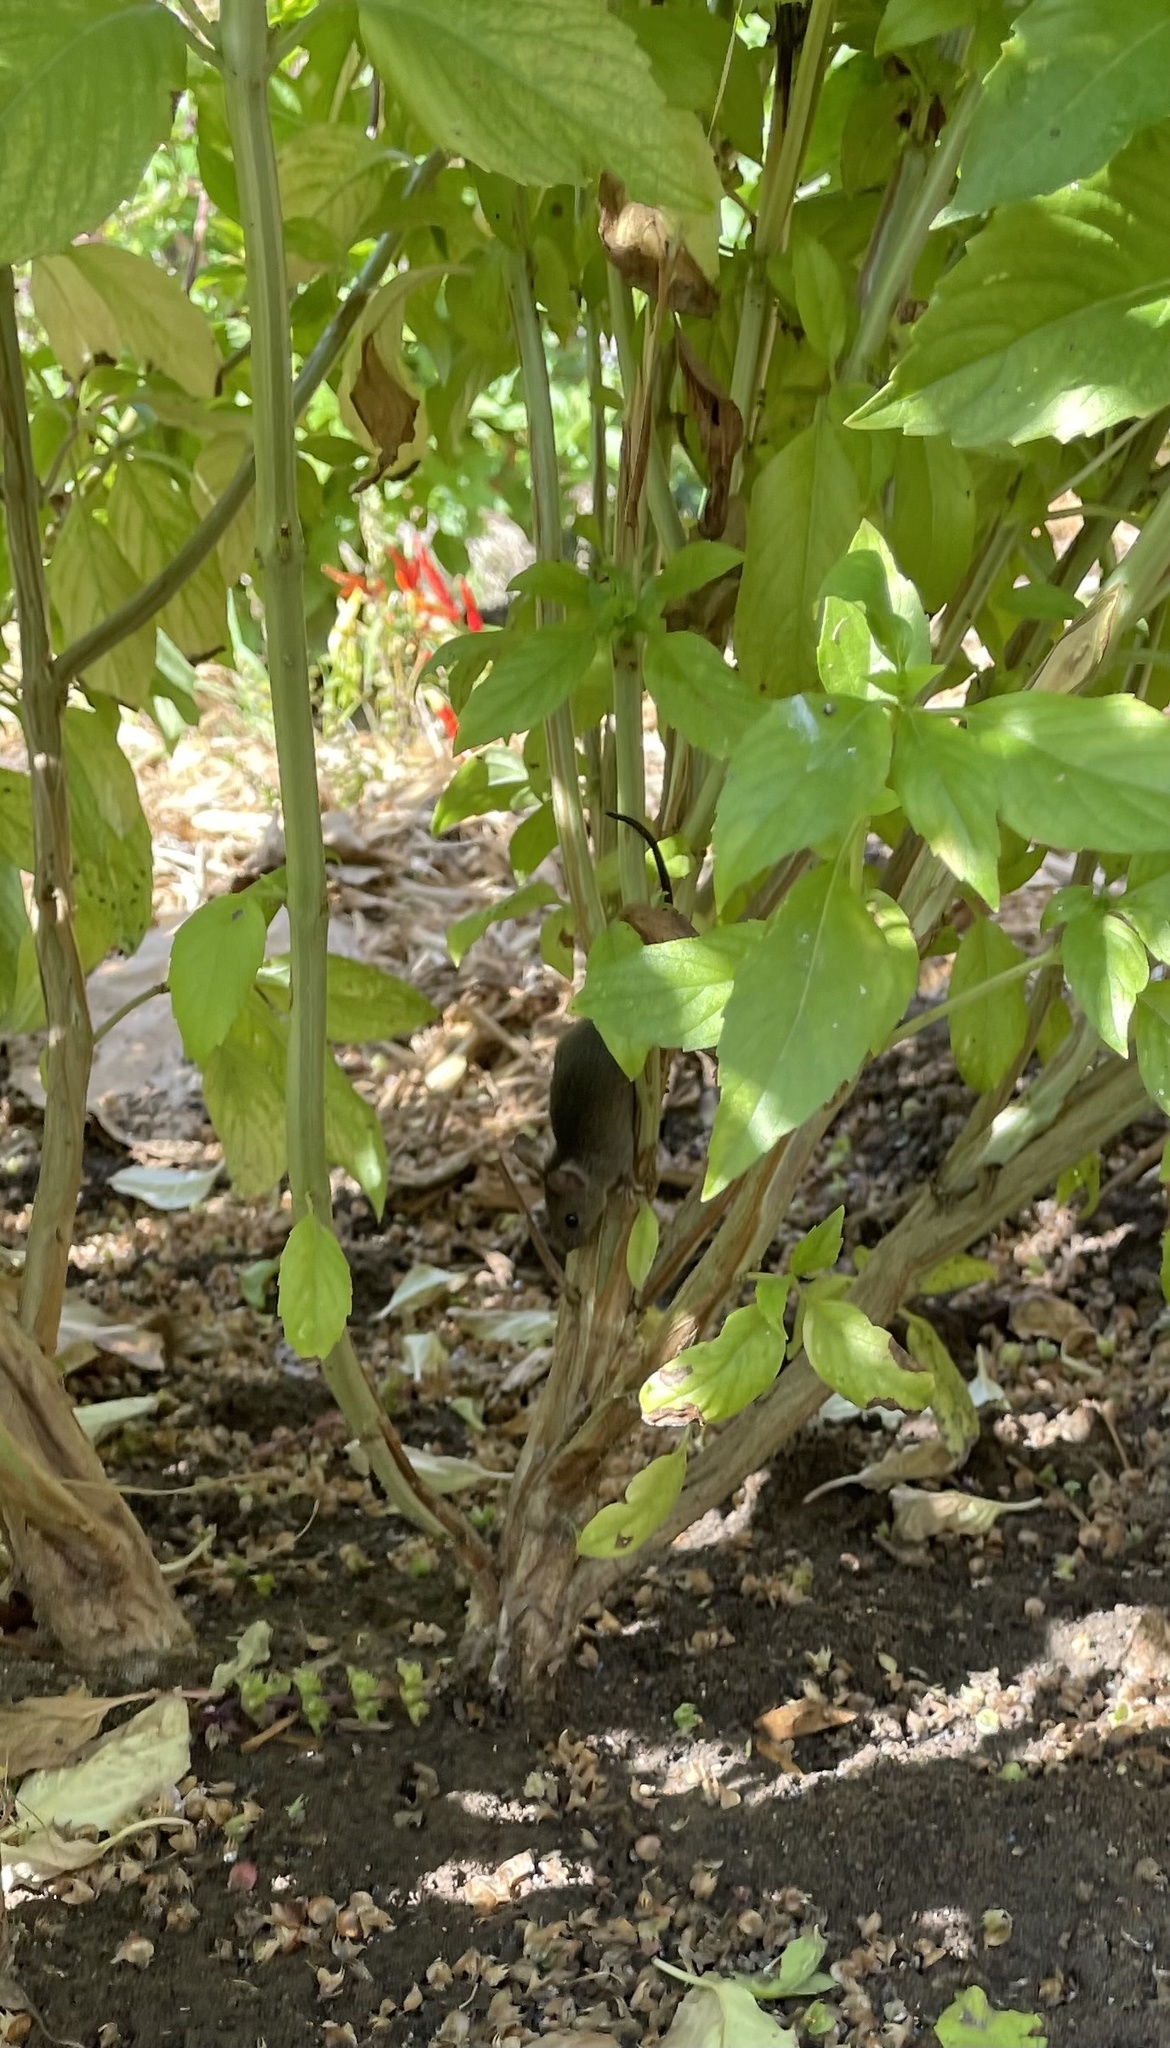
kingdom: Animalia
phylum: Chordata
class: Mammalia
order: Rodentia
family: Muridae
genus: Mus
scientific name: Mus musculus
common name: House mouse
